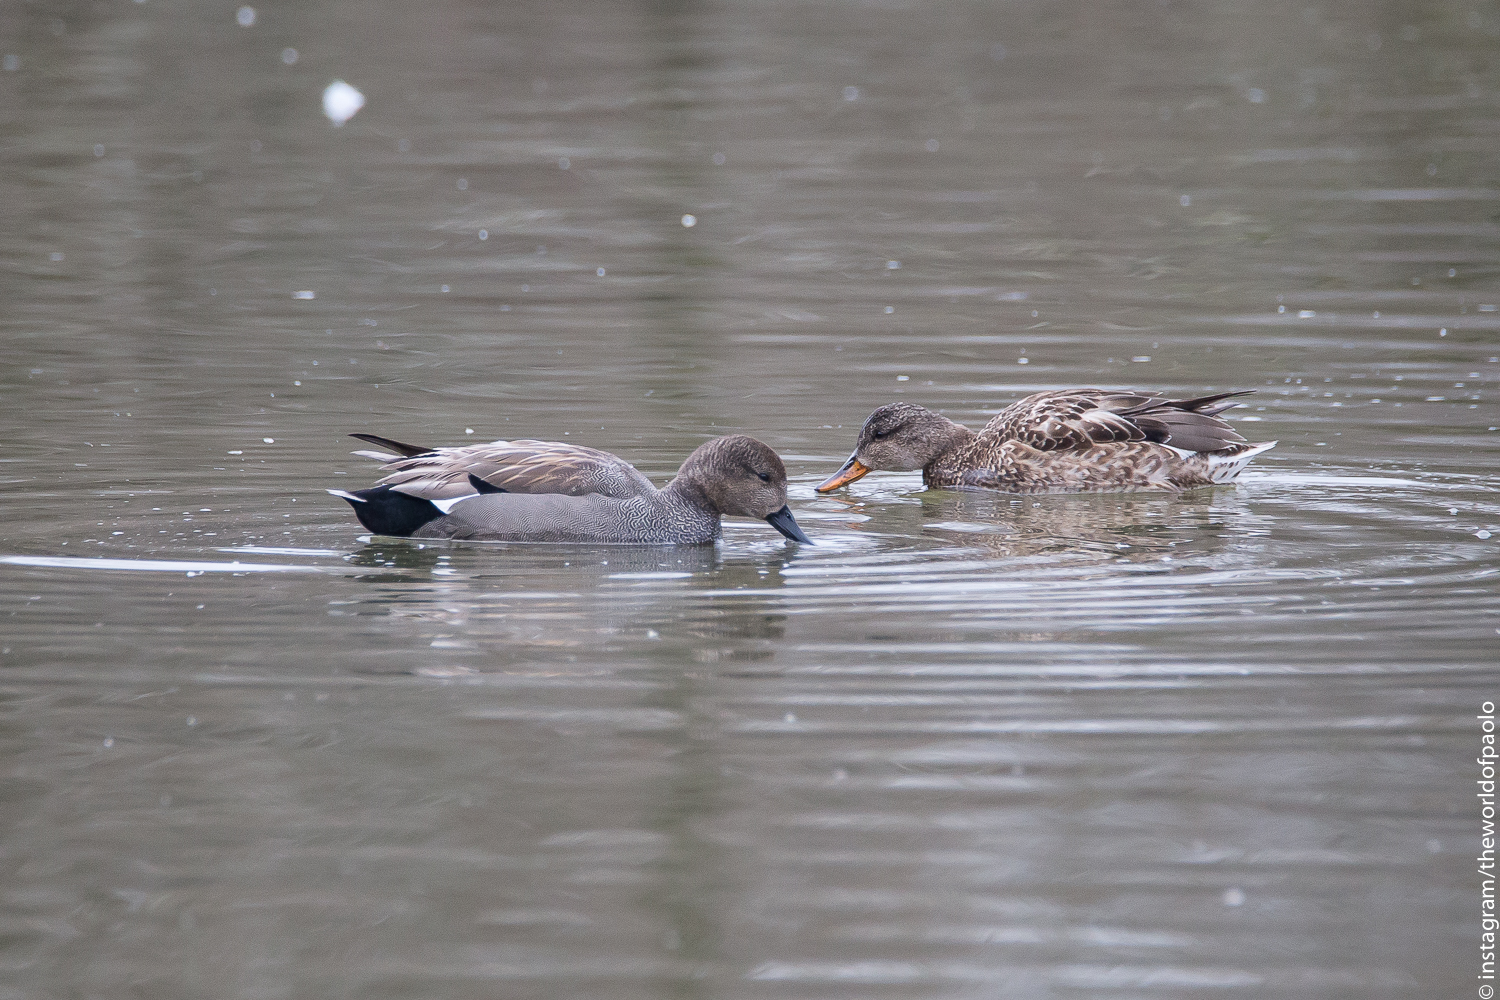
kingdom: Animalia
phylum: Chordata
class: Aves
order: Anseriformes
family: Anatidae
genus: Mareca
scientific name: Mareca strepera
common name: Gadwall
